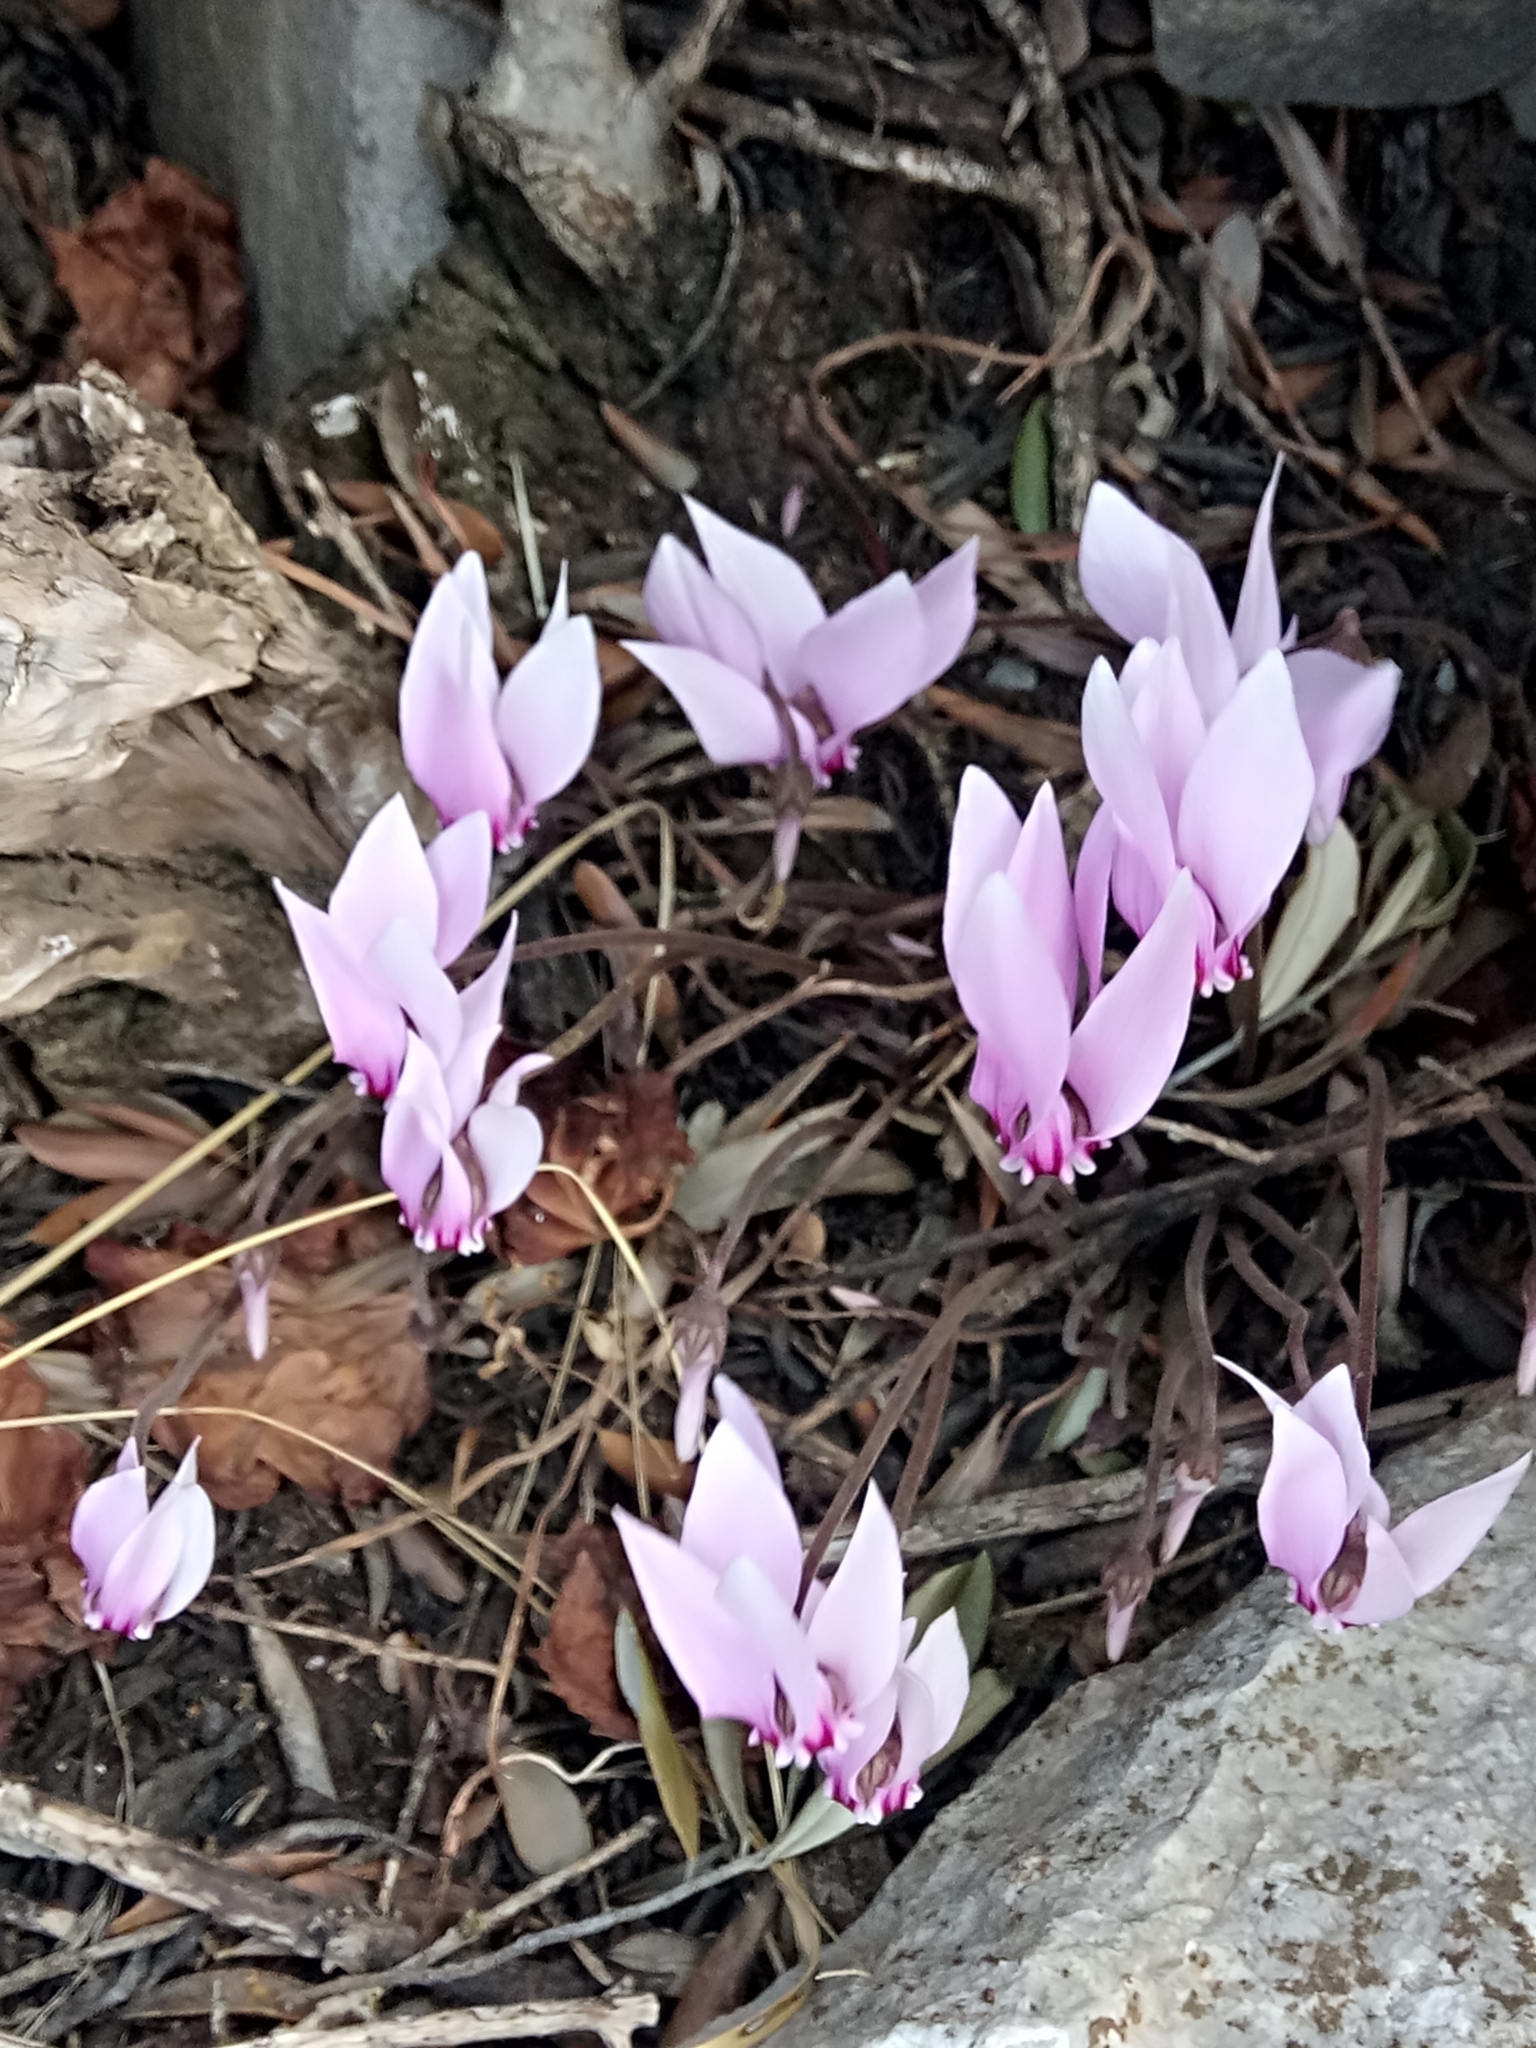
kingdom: Plantae
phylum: Tracheophyta
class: Magnoliopsida
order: Ericales
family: Primulaceae
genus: Cyclamen
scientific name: Cyclamen africanum
